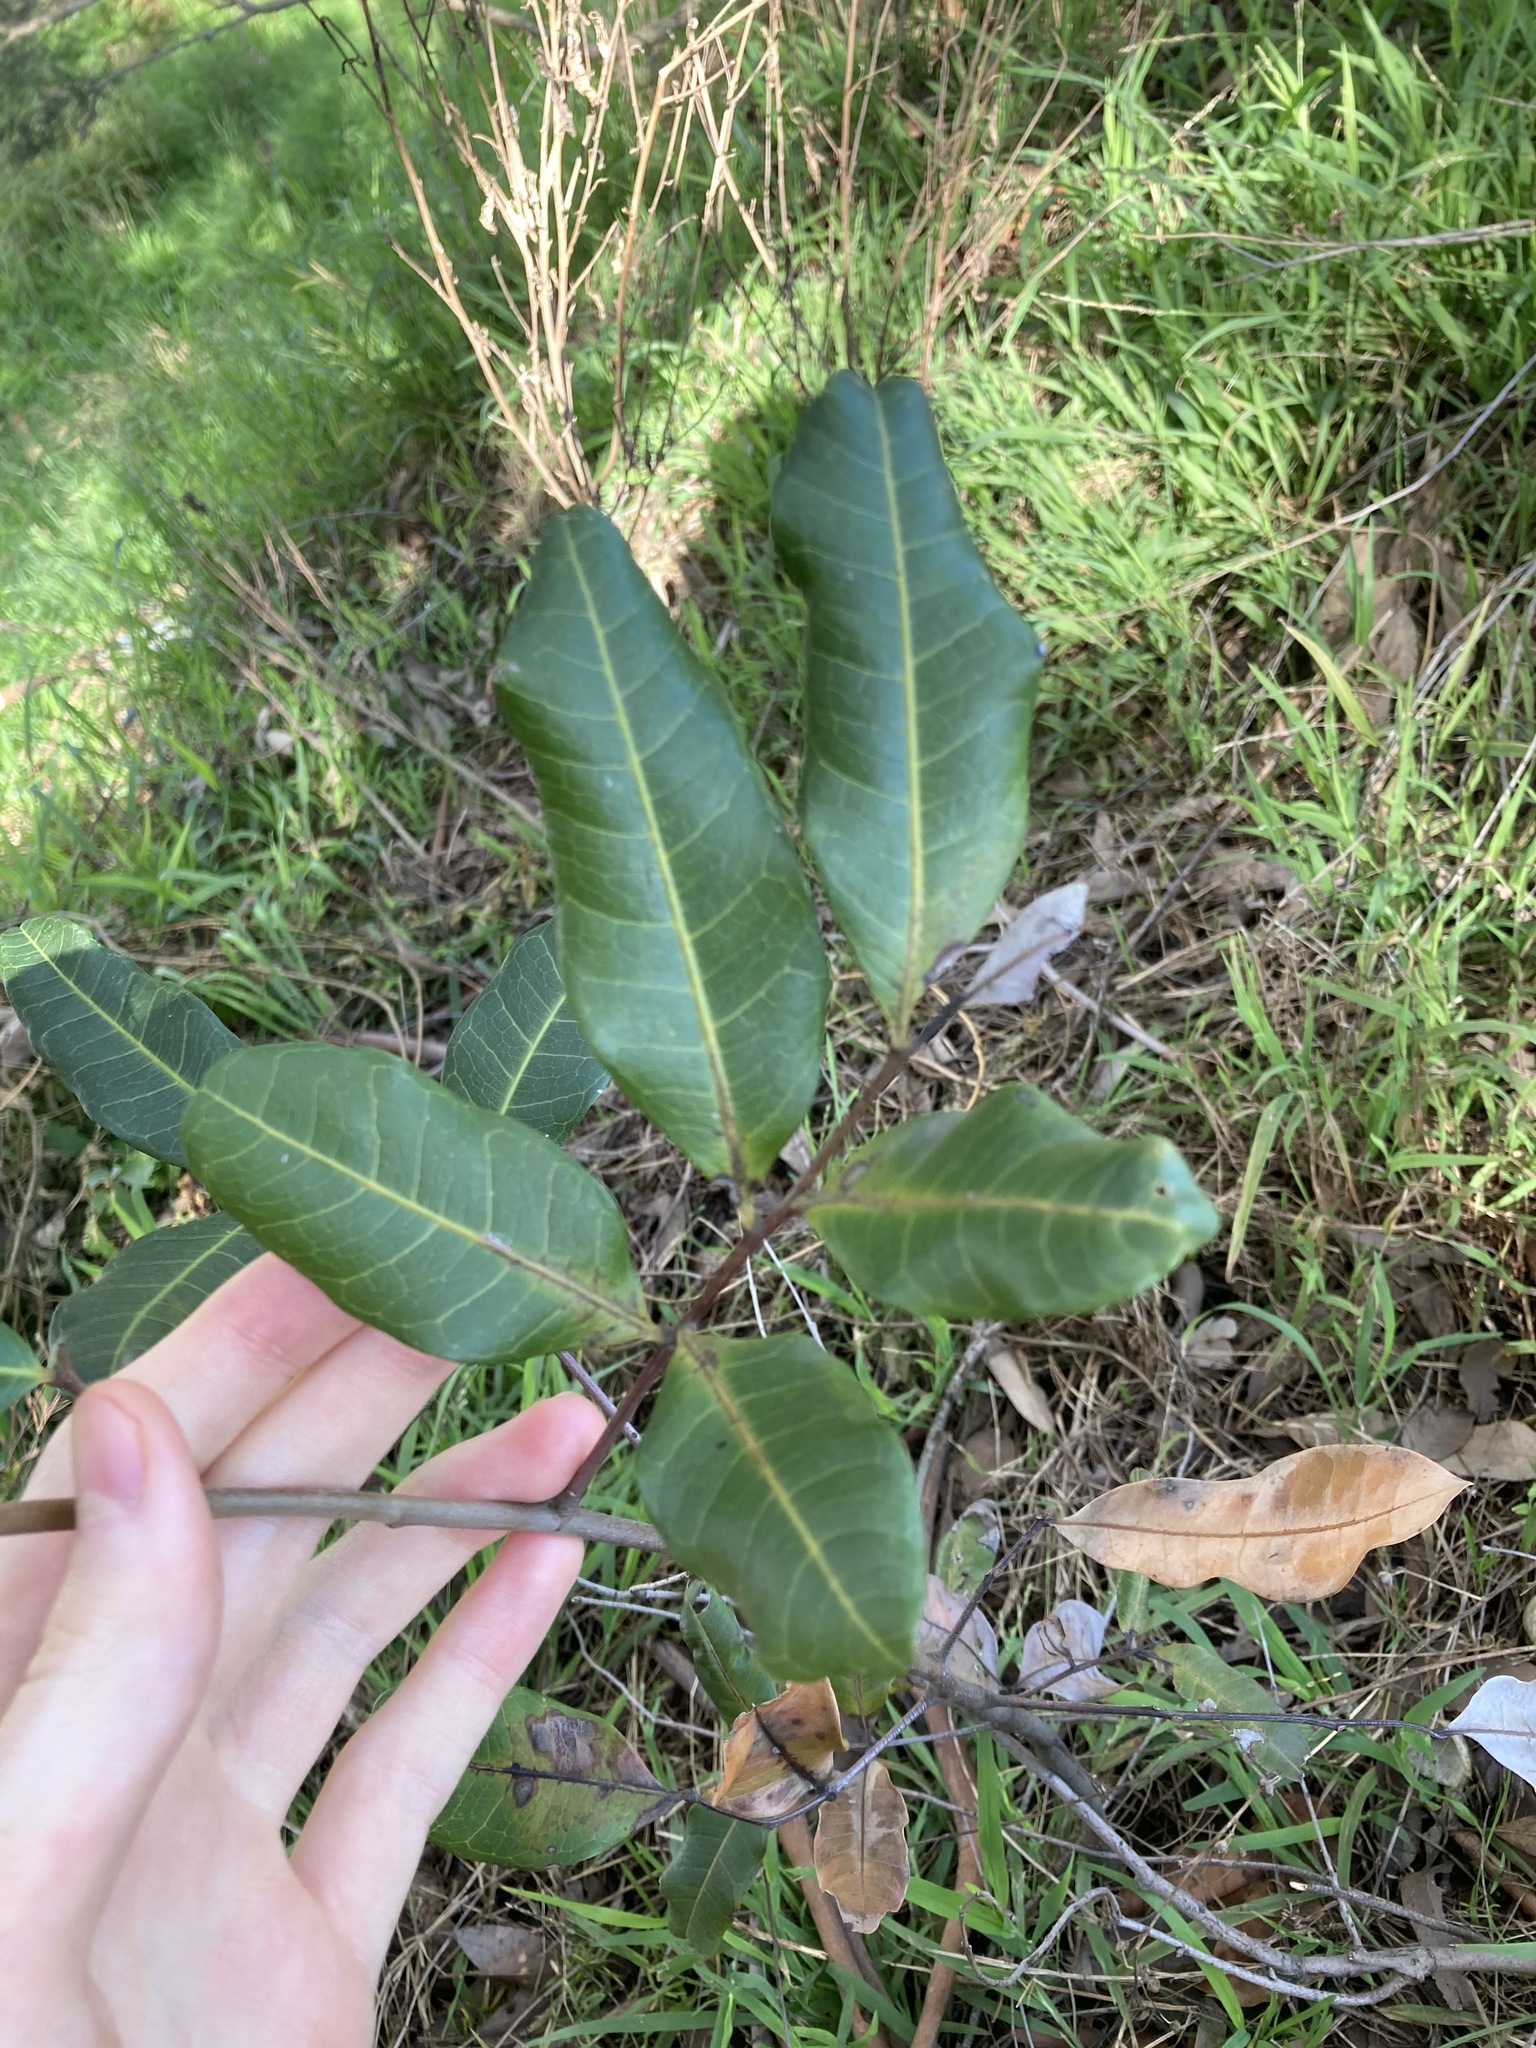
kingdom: Plantae
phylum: Tracheophyta
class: Magnoliopsida
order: Sapindales
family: Sapindaceae
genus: Cupaniopsis
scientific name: Cupaniopsis anacardioides
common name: Carrotwood
